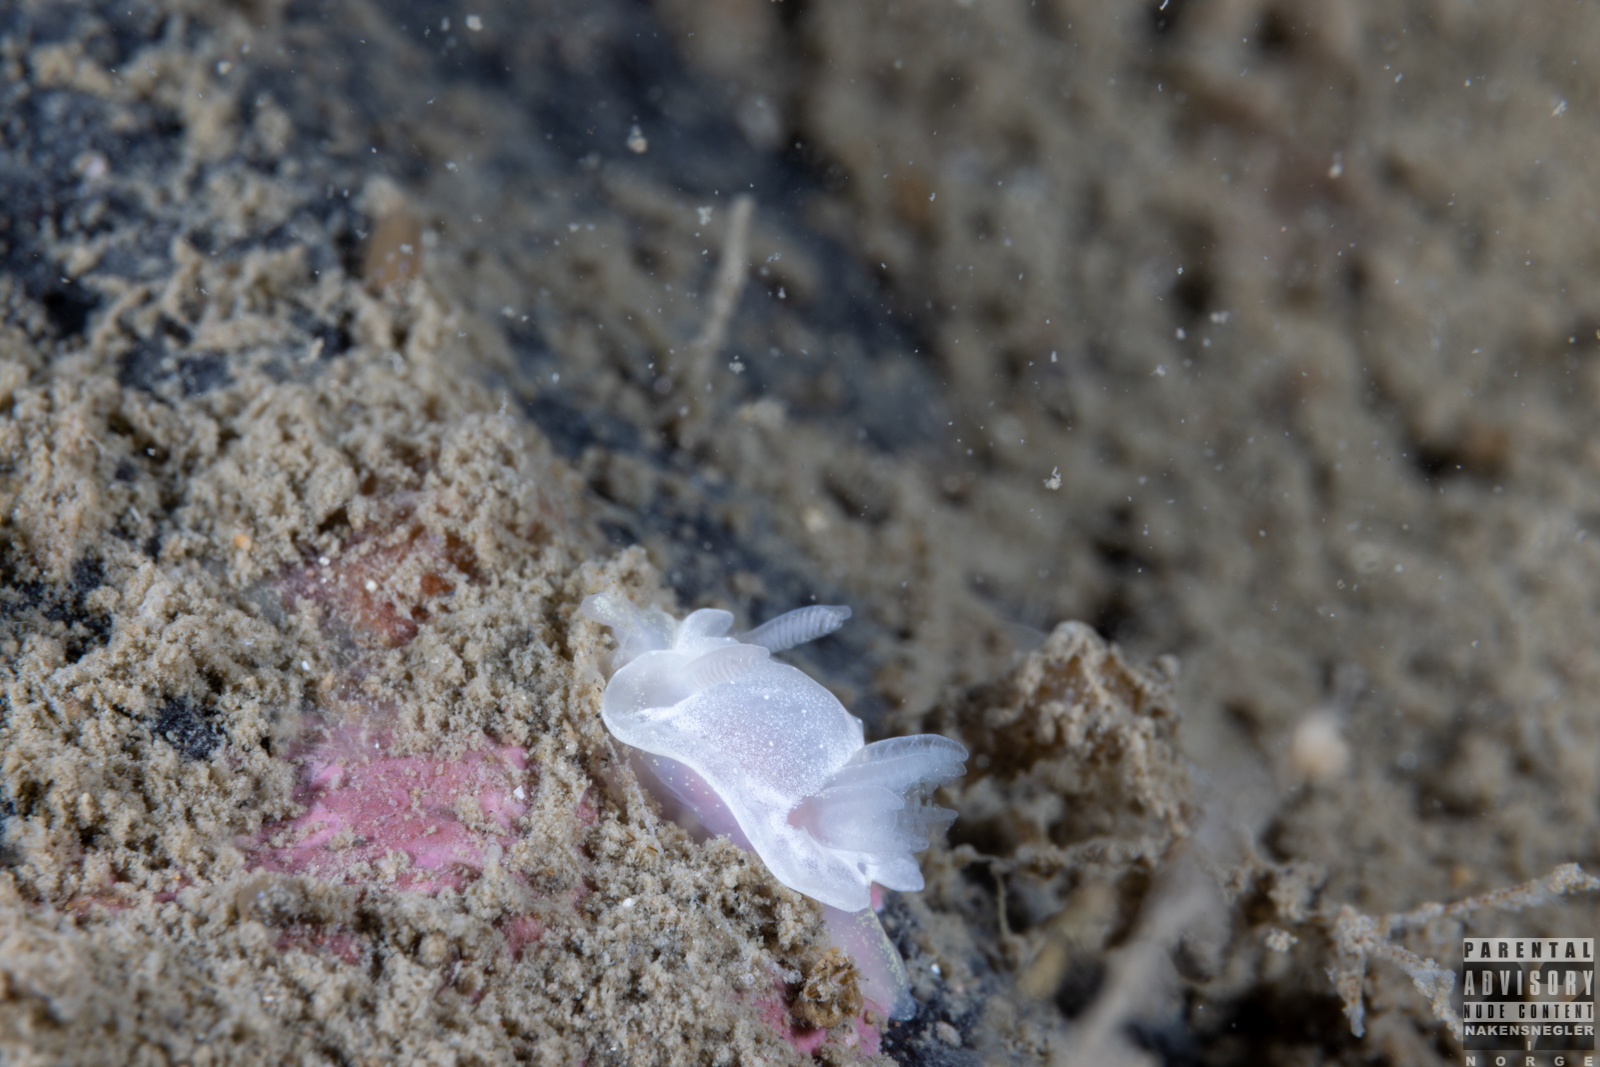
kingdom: Animalia
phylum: Mollusca
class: Gastropoda
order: Nudibranchia
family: Goniodorididae
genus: Okenia
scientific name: Okenia
